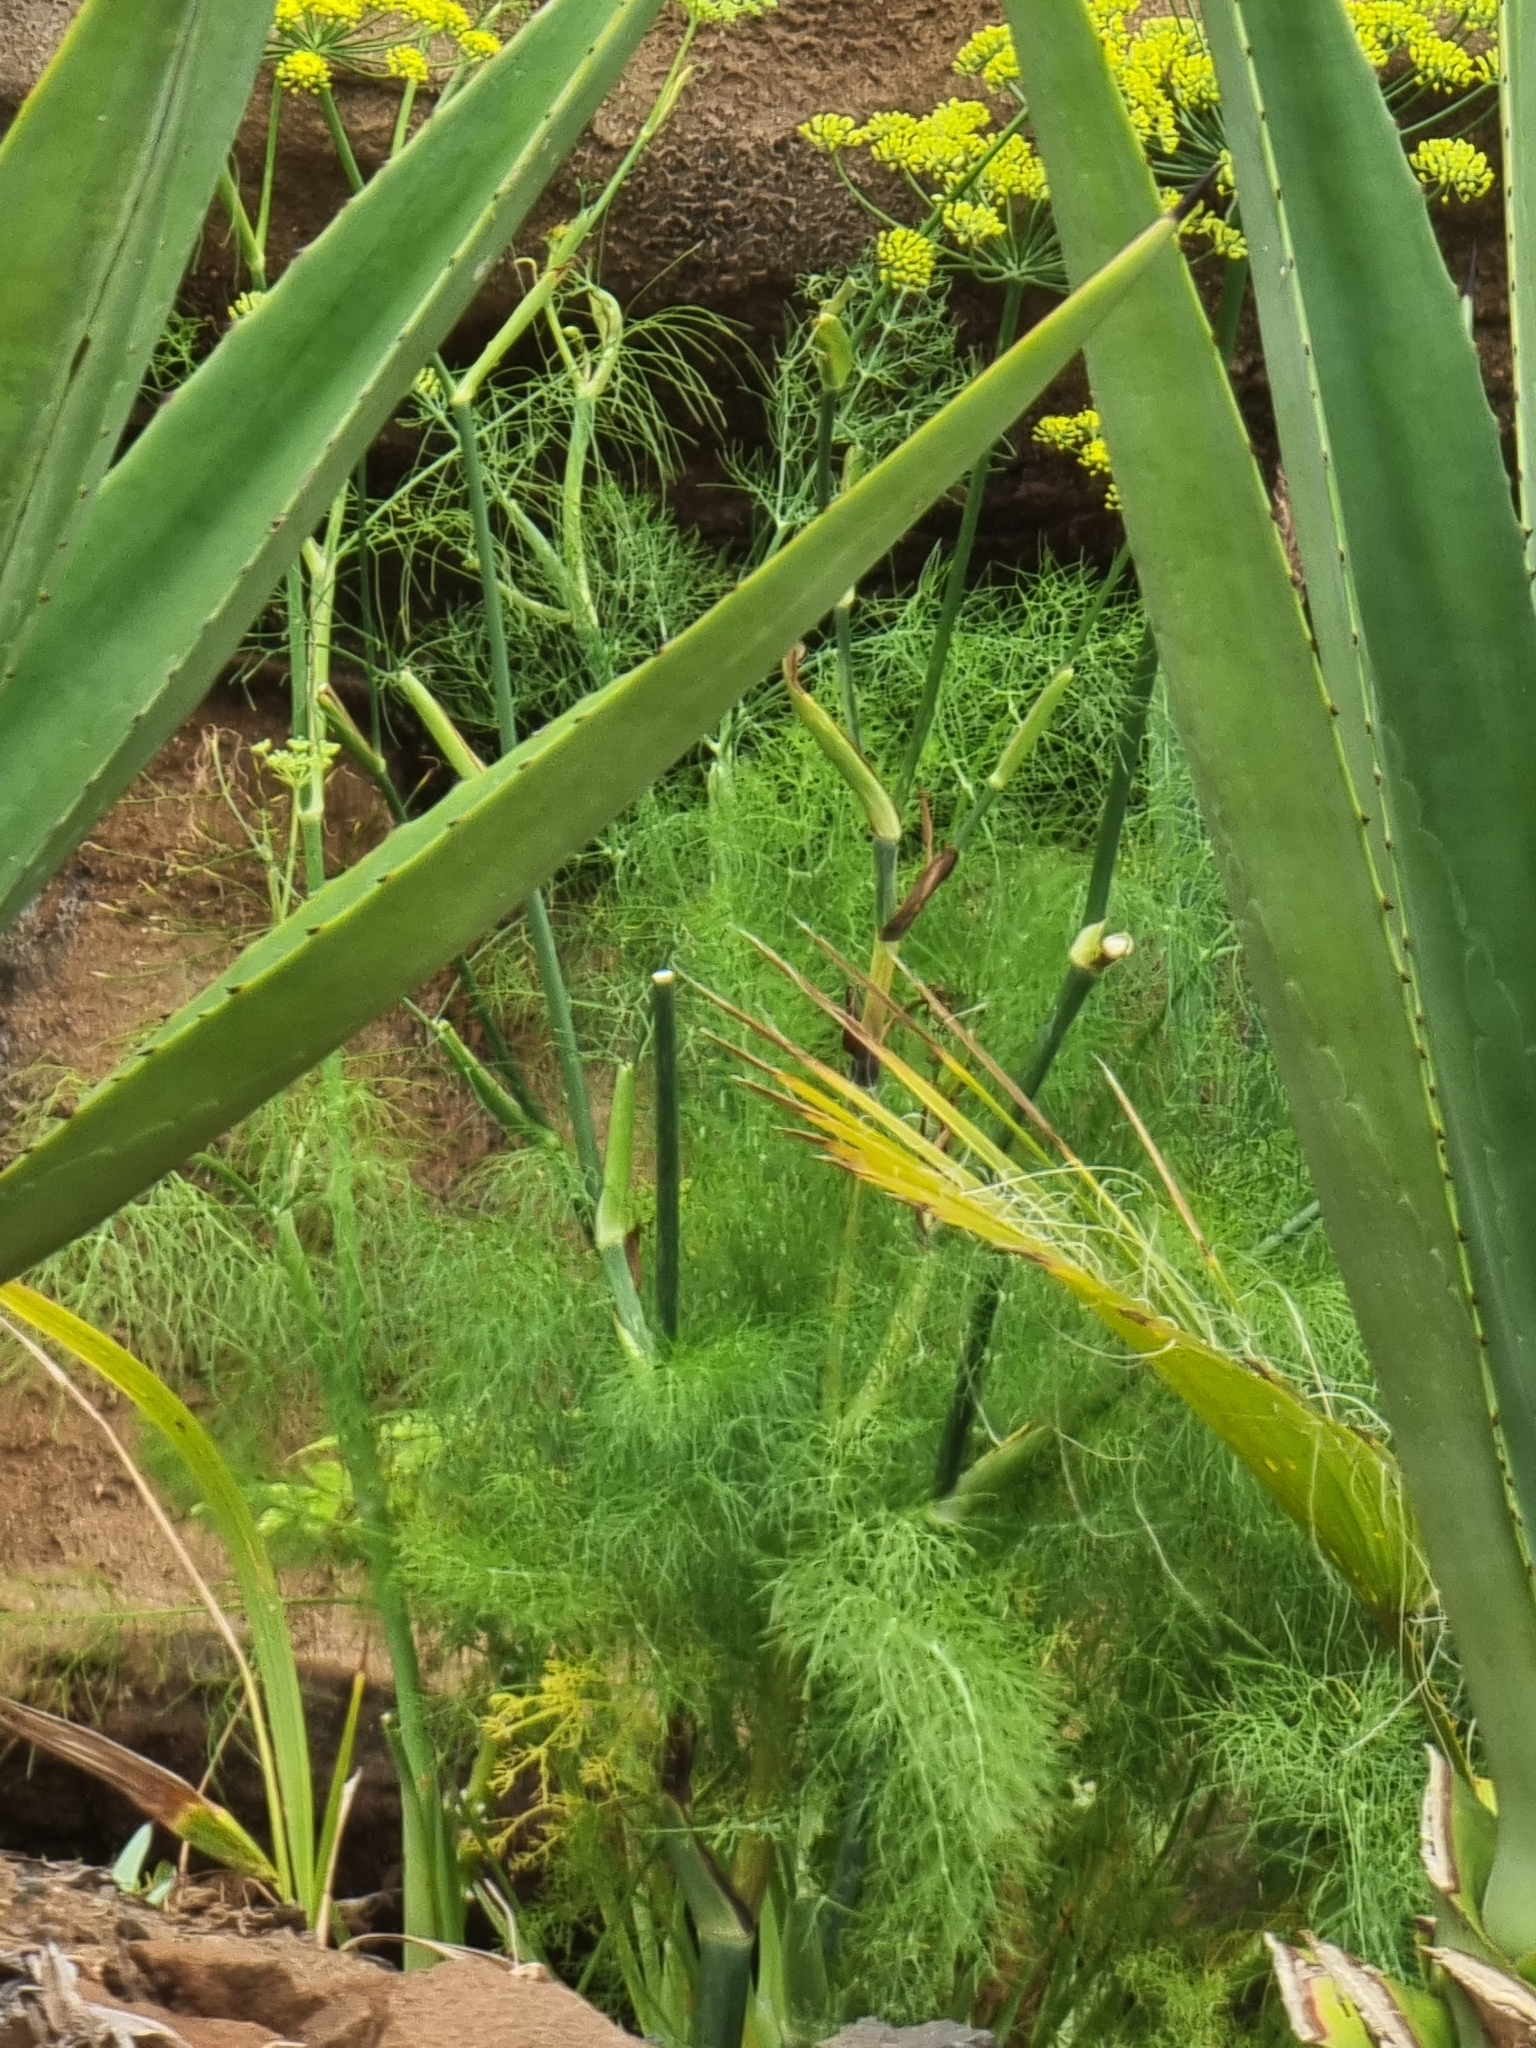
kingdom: Plantae
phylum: Tracheophyta
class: Magnoliopsida
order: Apiales
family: Apiaceae
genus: Foeniculum
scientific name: Foeniculum vulgare
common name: Fennel
